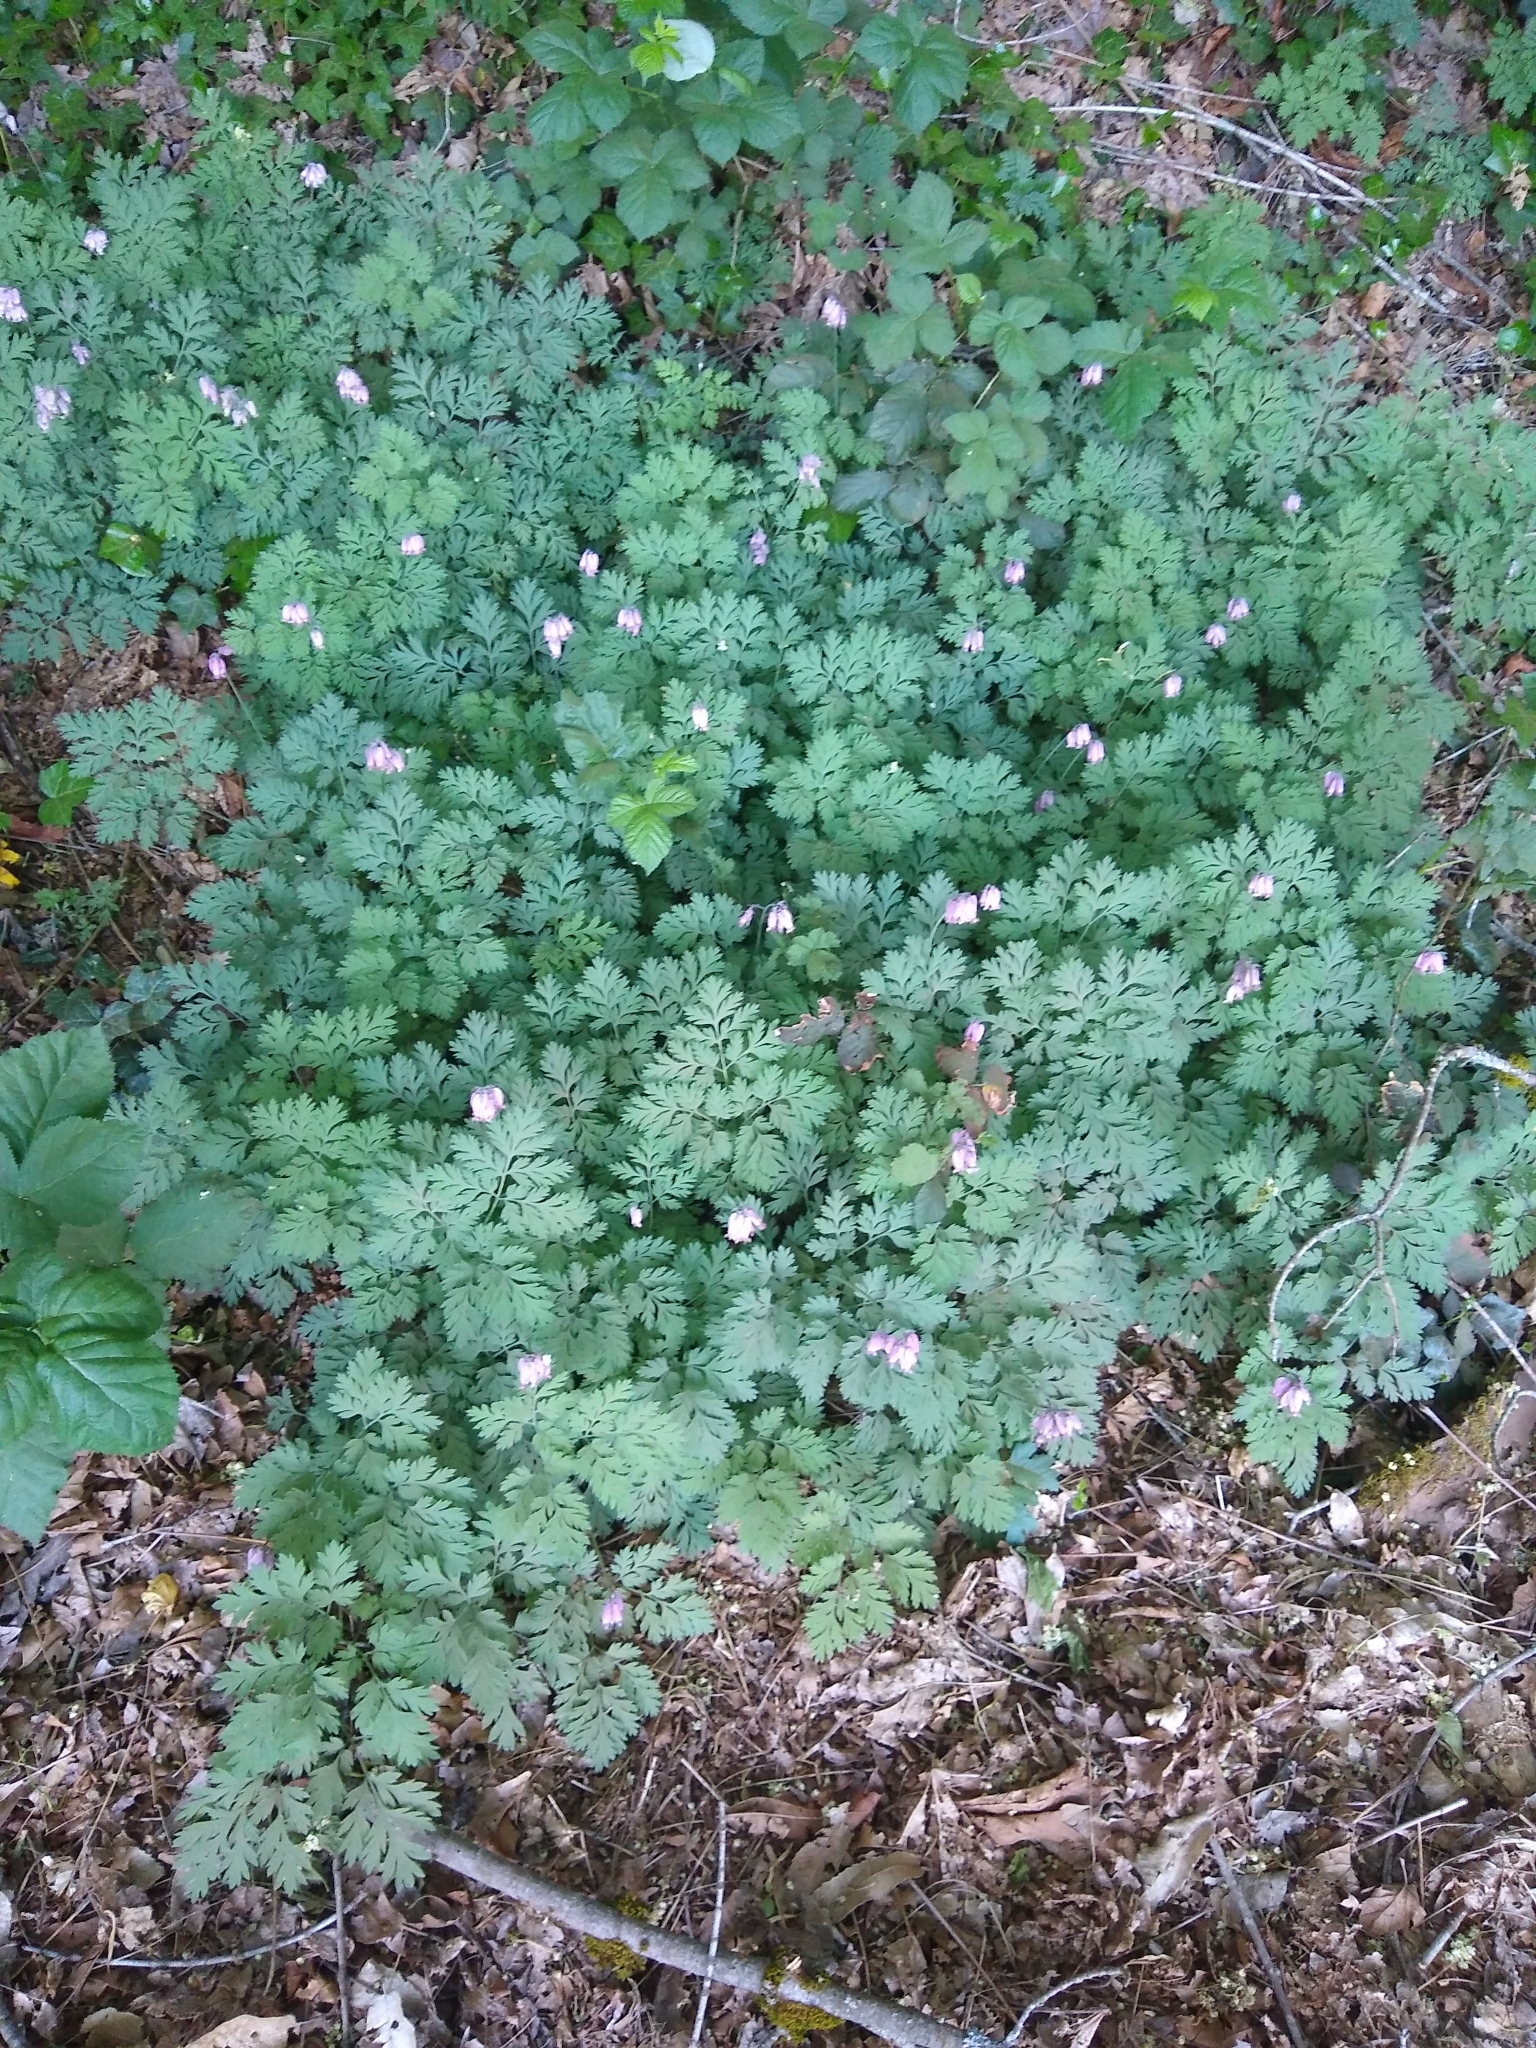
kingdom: Plantae
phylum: Tracheophyta
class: Magnoliopsida
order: Ranunculales
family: Papaveraceae
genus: Dicentra
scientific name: Dicentra formosa
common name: Bleeding-heart
